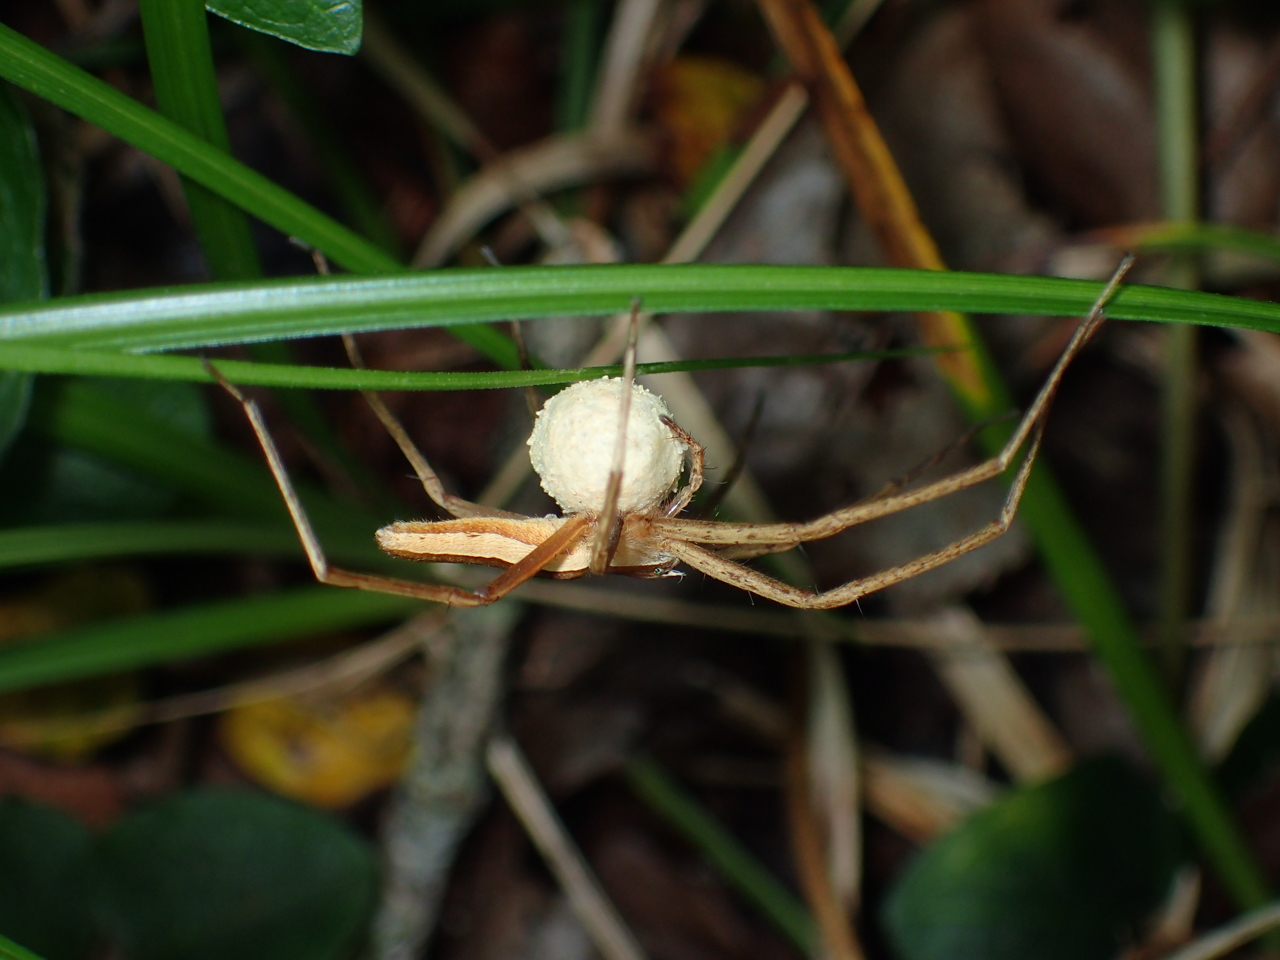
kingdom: Animalia
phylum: Arthropoda
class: Arachnida
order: Araneae
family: Pisauridae
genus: Pisaurina
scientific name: Pisaurina dubia
